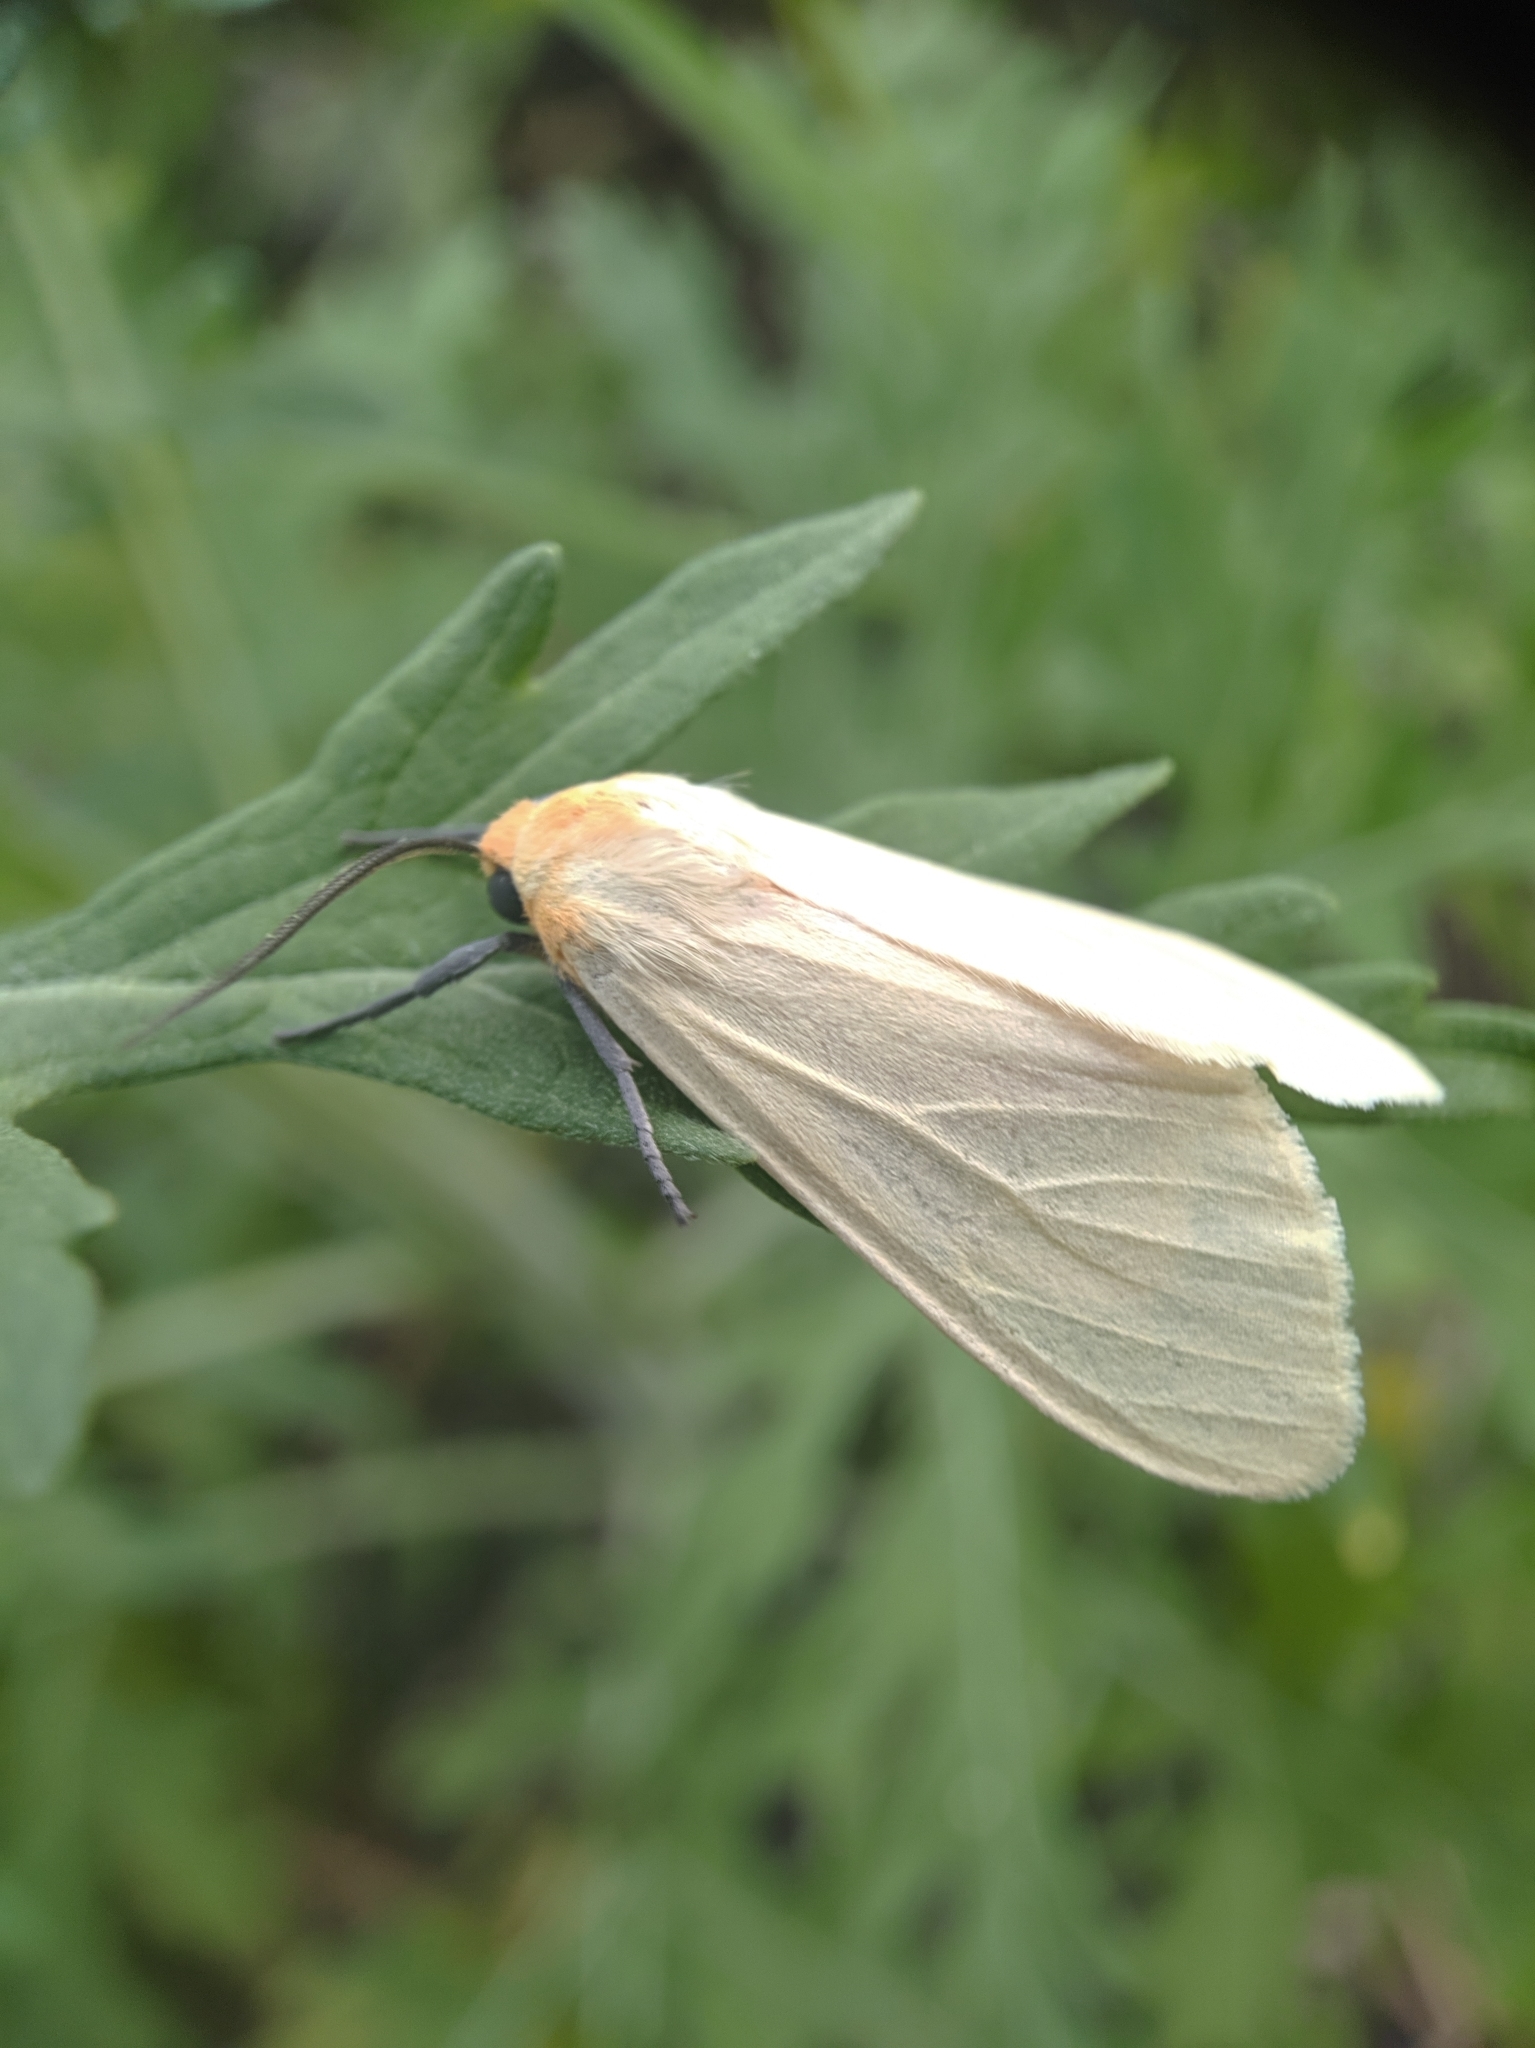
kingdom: Animalia
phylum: Arthropoda
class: Insecta
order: Lepidoptera
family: Erebidae
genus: Pareuchaetes
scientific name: Pareuchaetes pseudoinsulata
